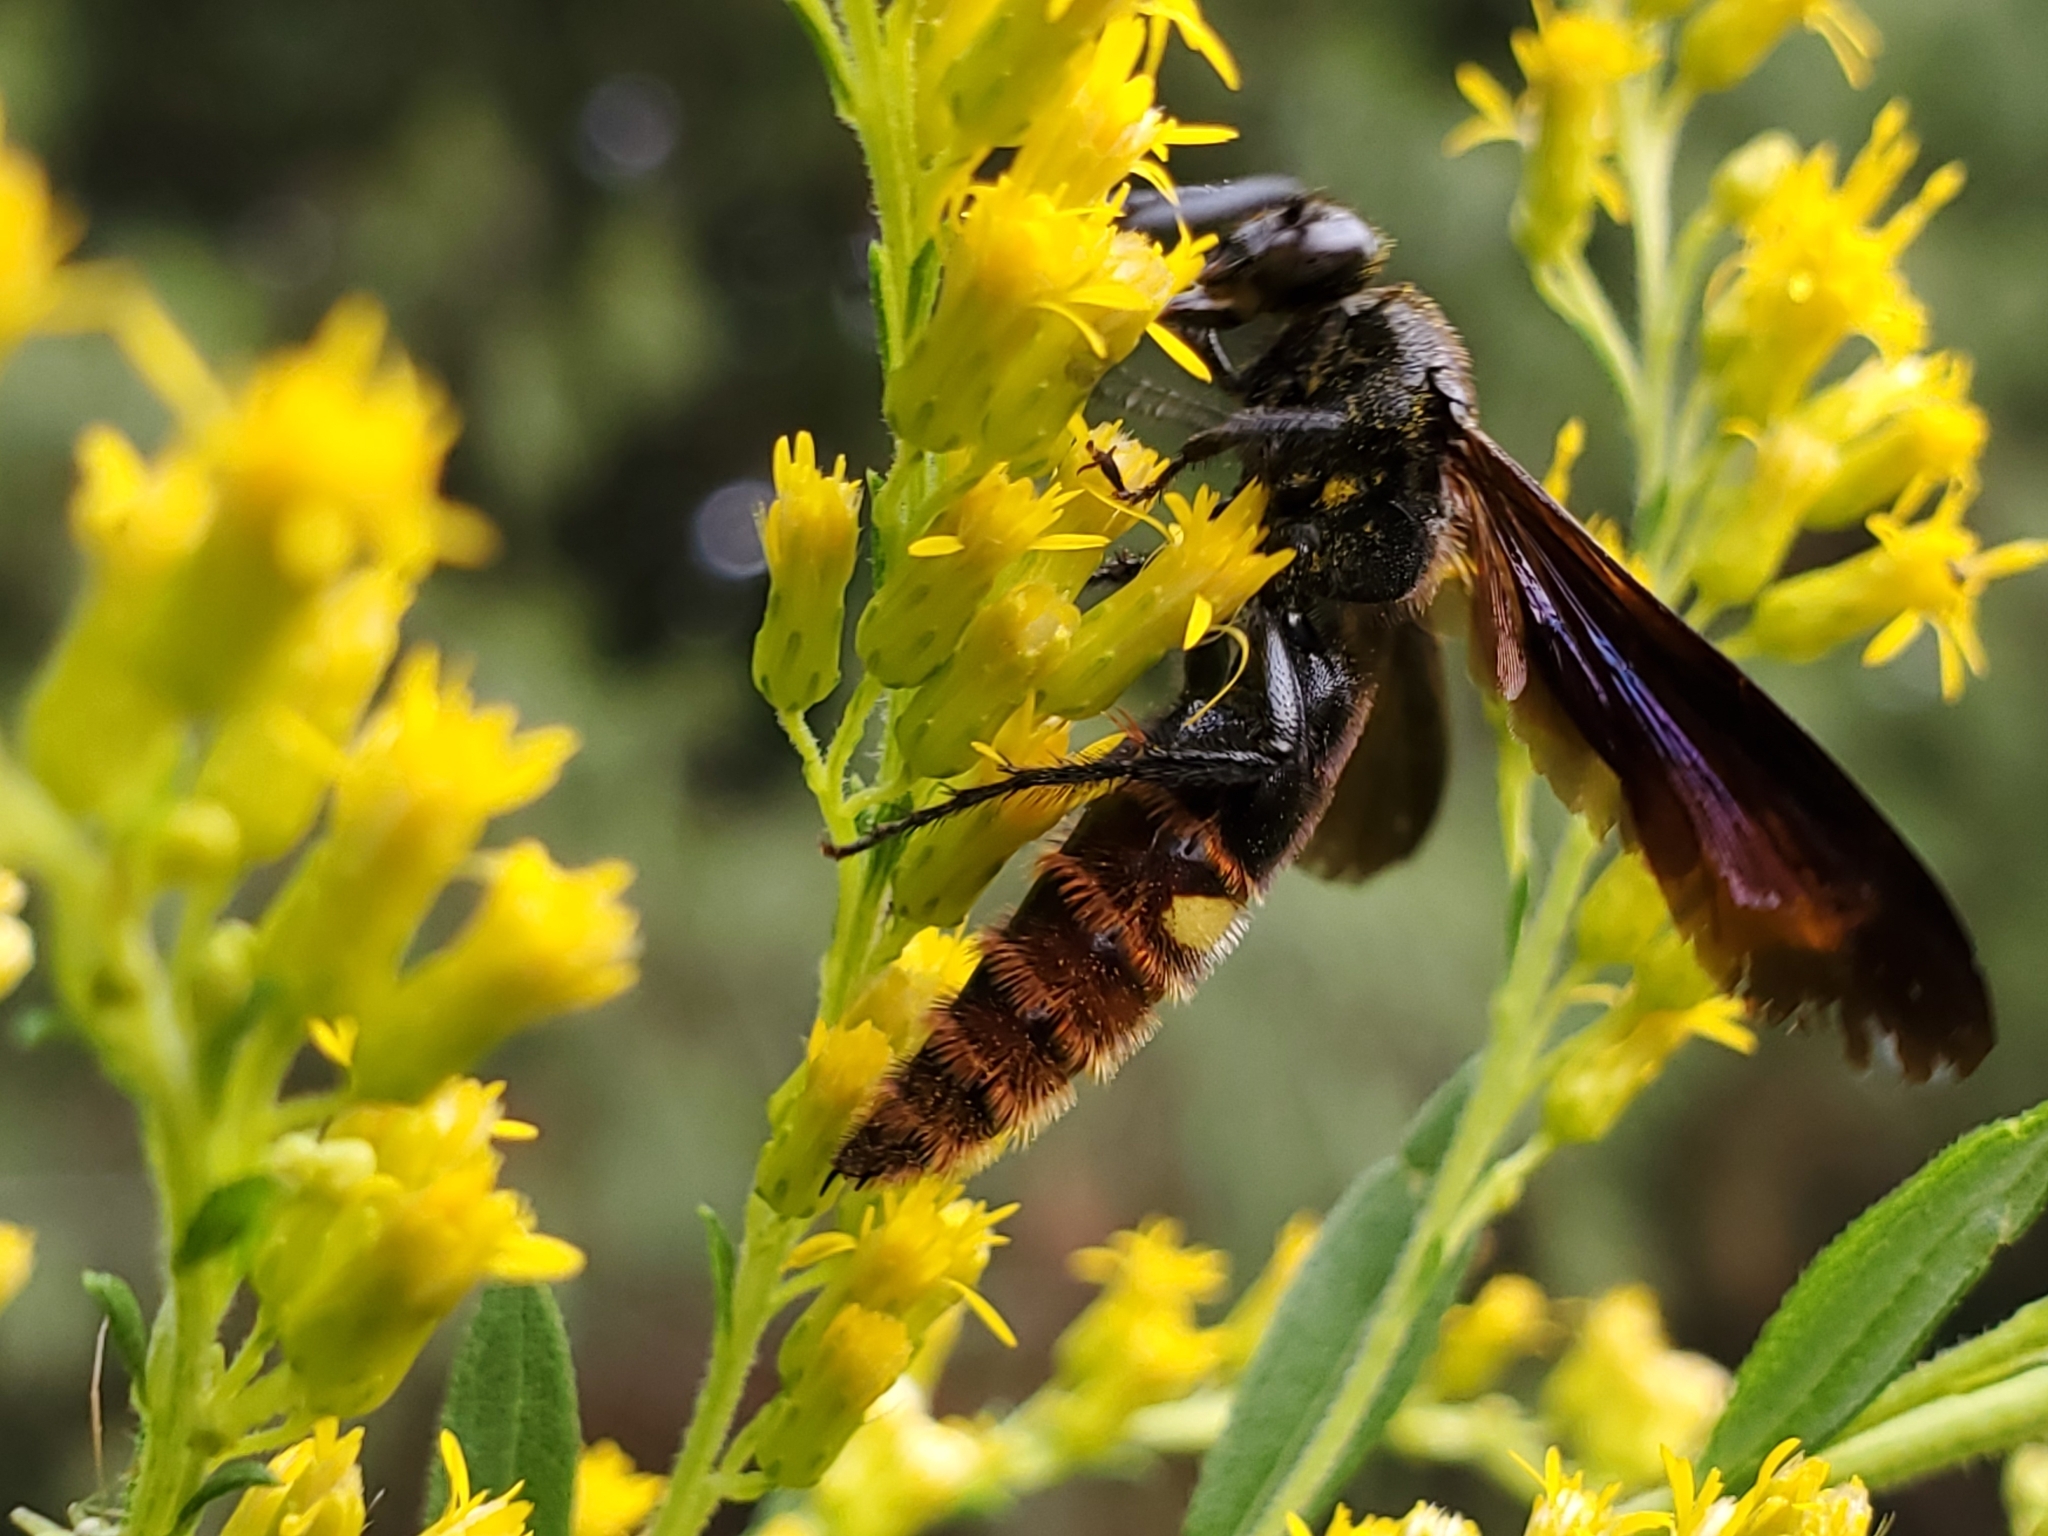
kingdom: Animalia
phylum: Arthropoda
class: Insecta
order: Hymenoptera
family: Scoliidae
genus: Scolia
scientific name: Scolia dubia
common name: Blue-winged scoliid wasp
